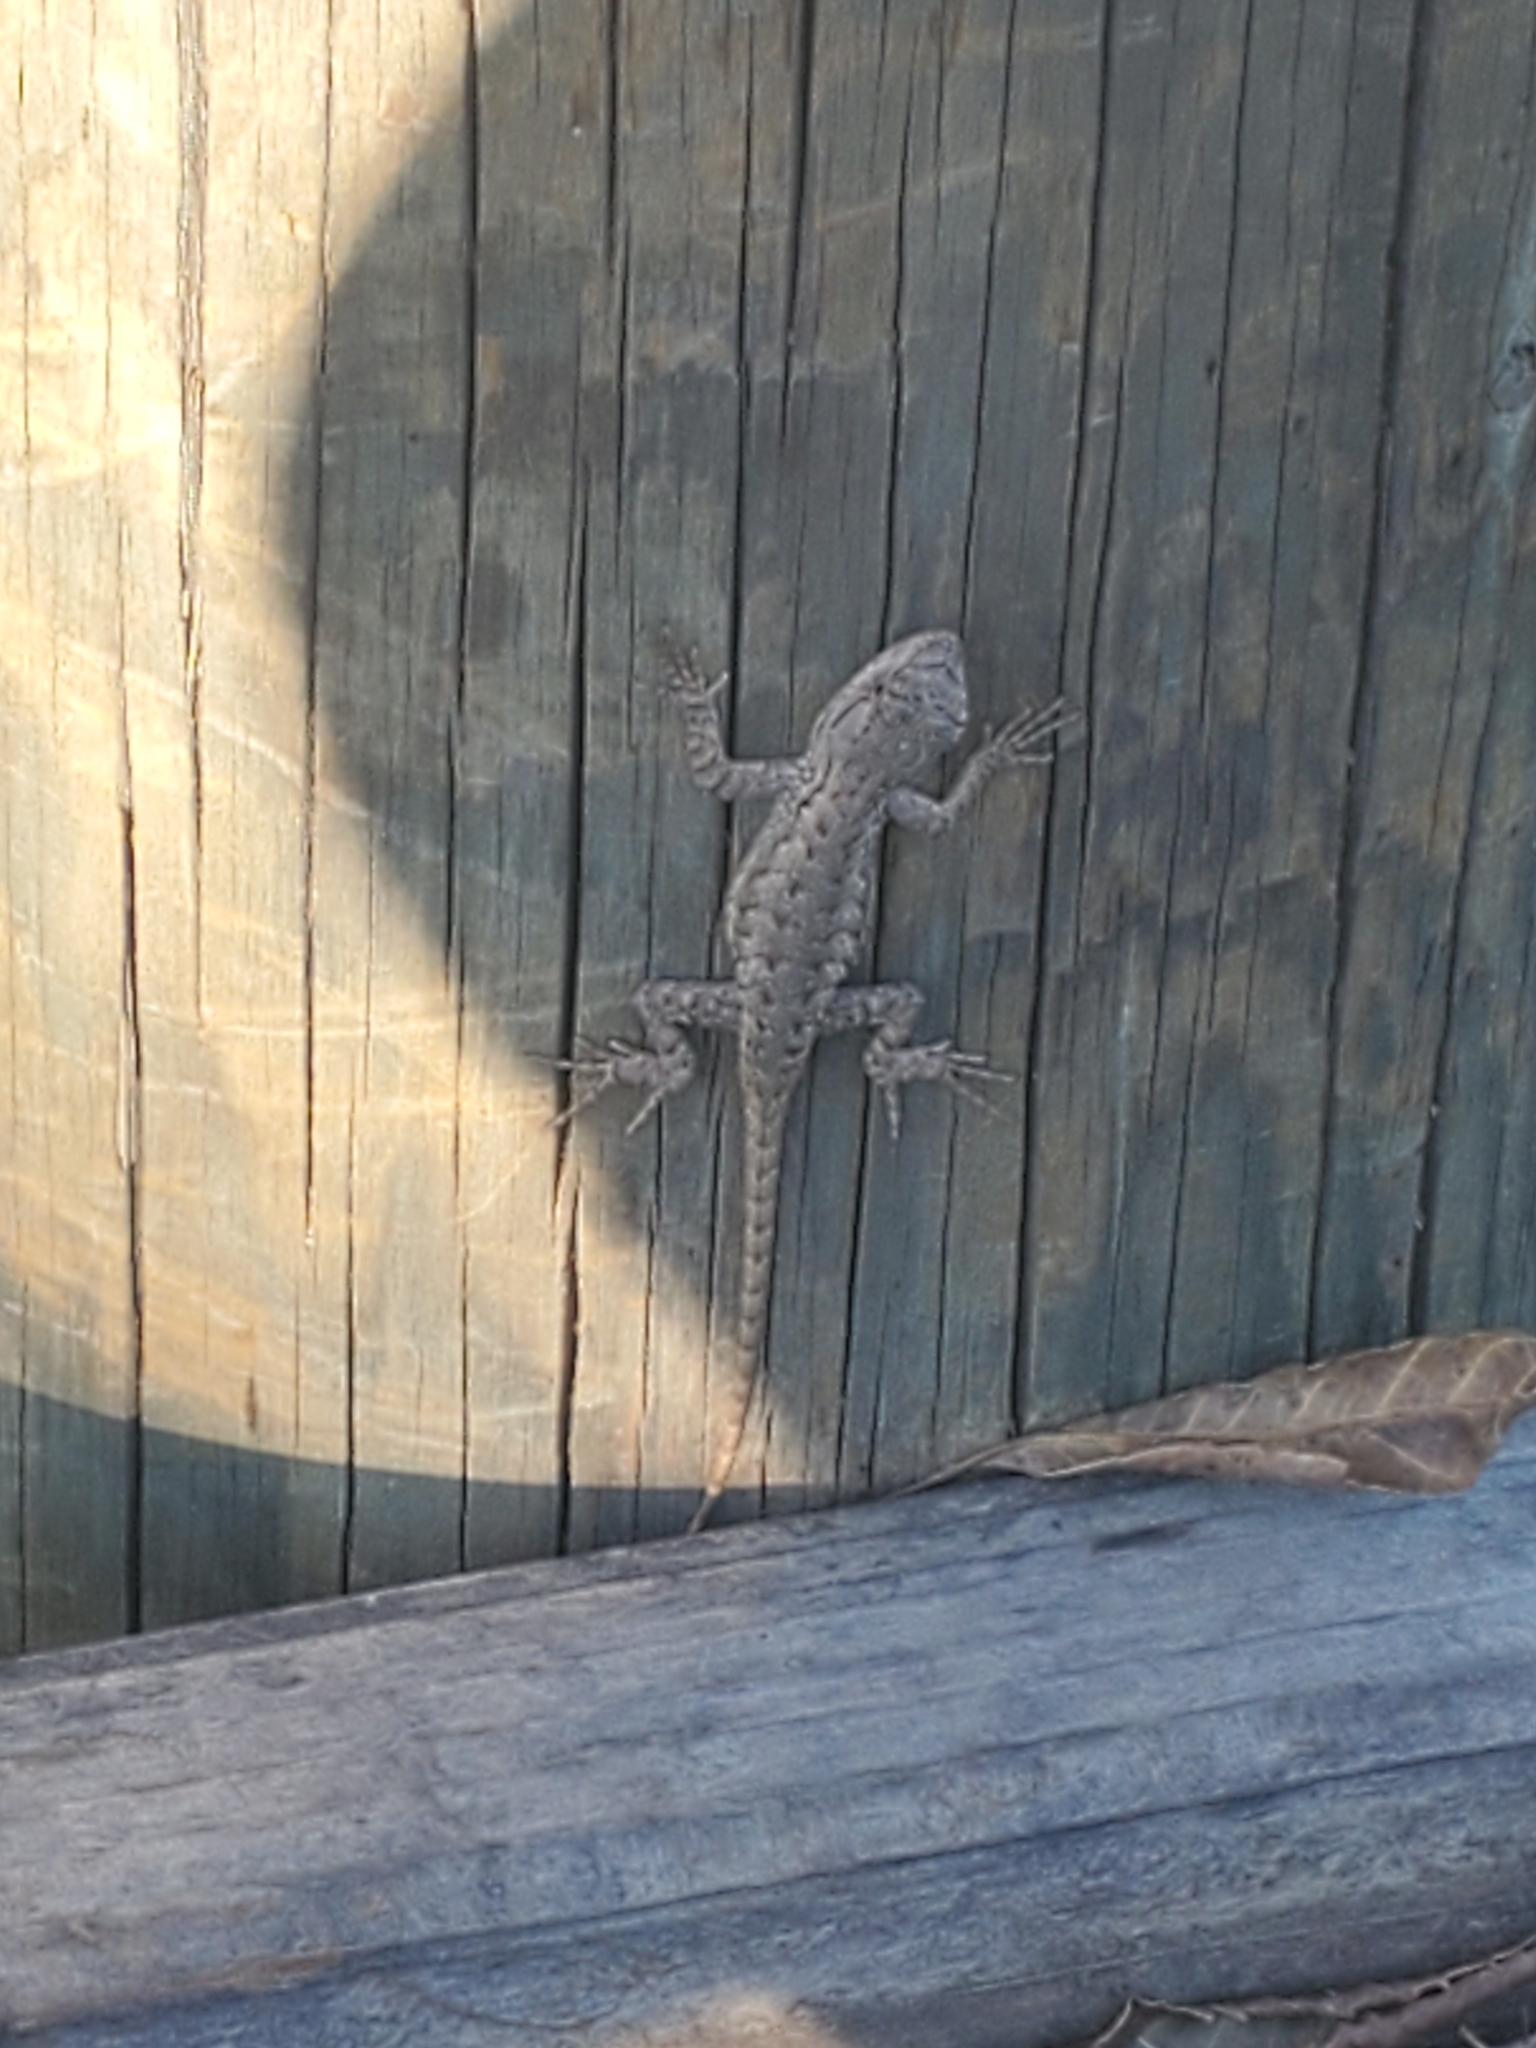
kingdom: Animalia
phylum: Chordata
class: Squamata
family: Phrynosomatidae
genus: Sceloporus
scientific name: Sceloporus occidentalis
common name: Western fence lizard
